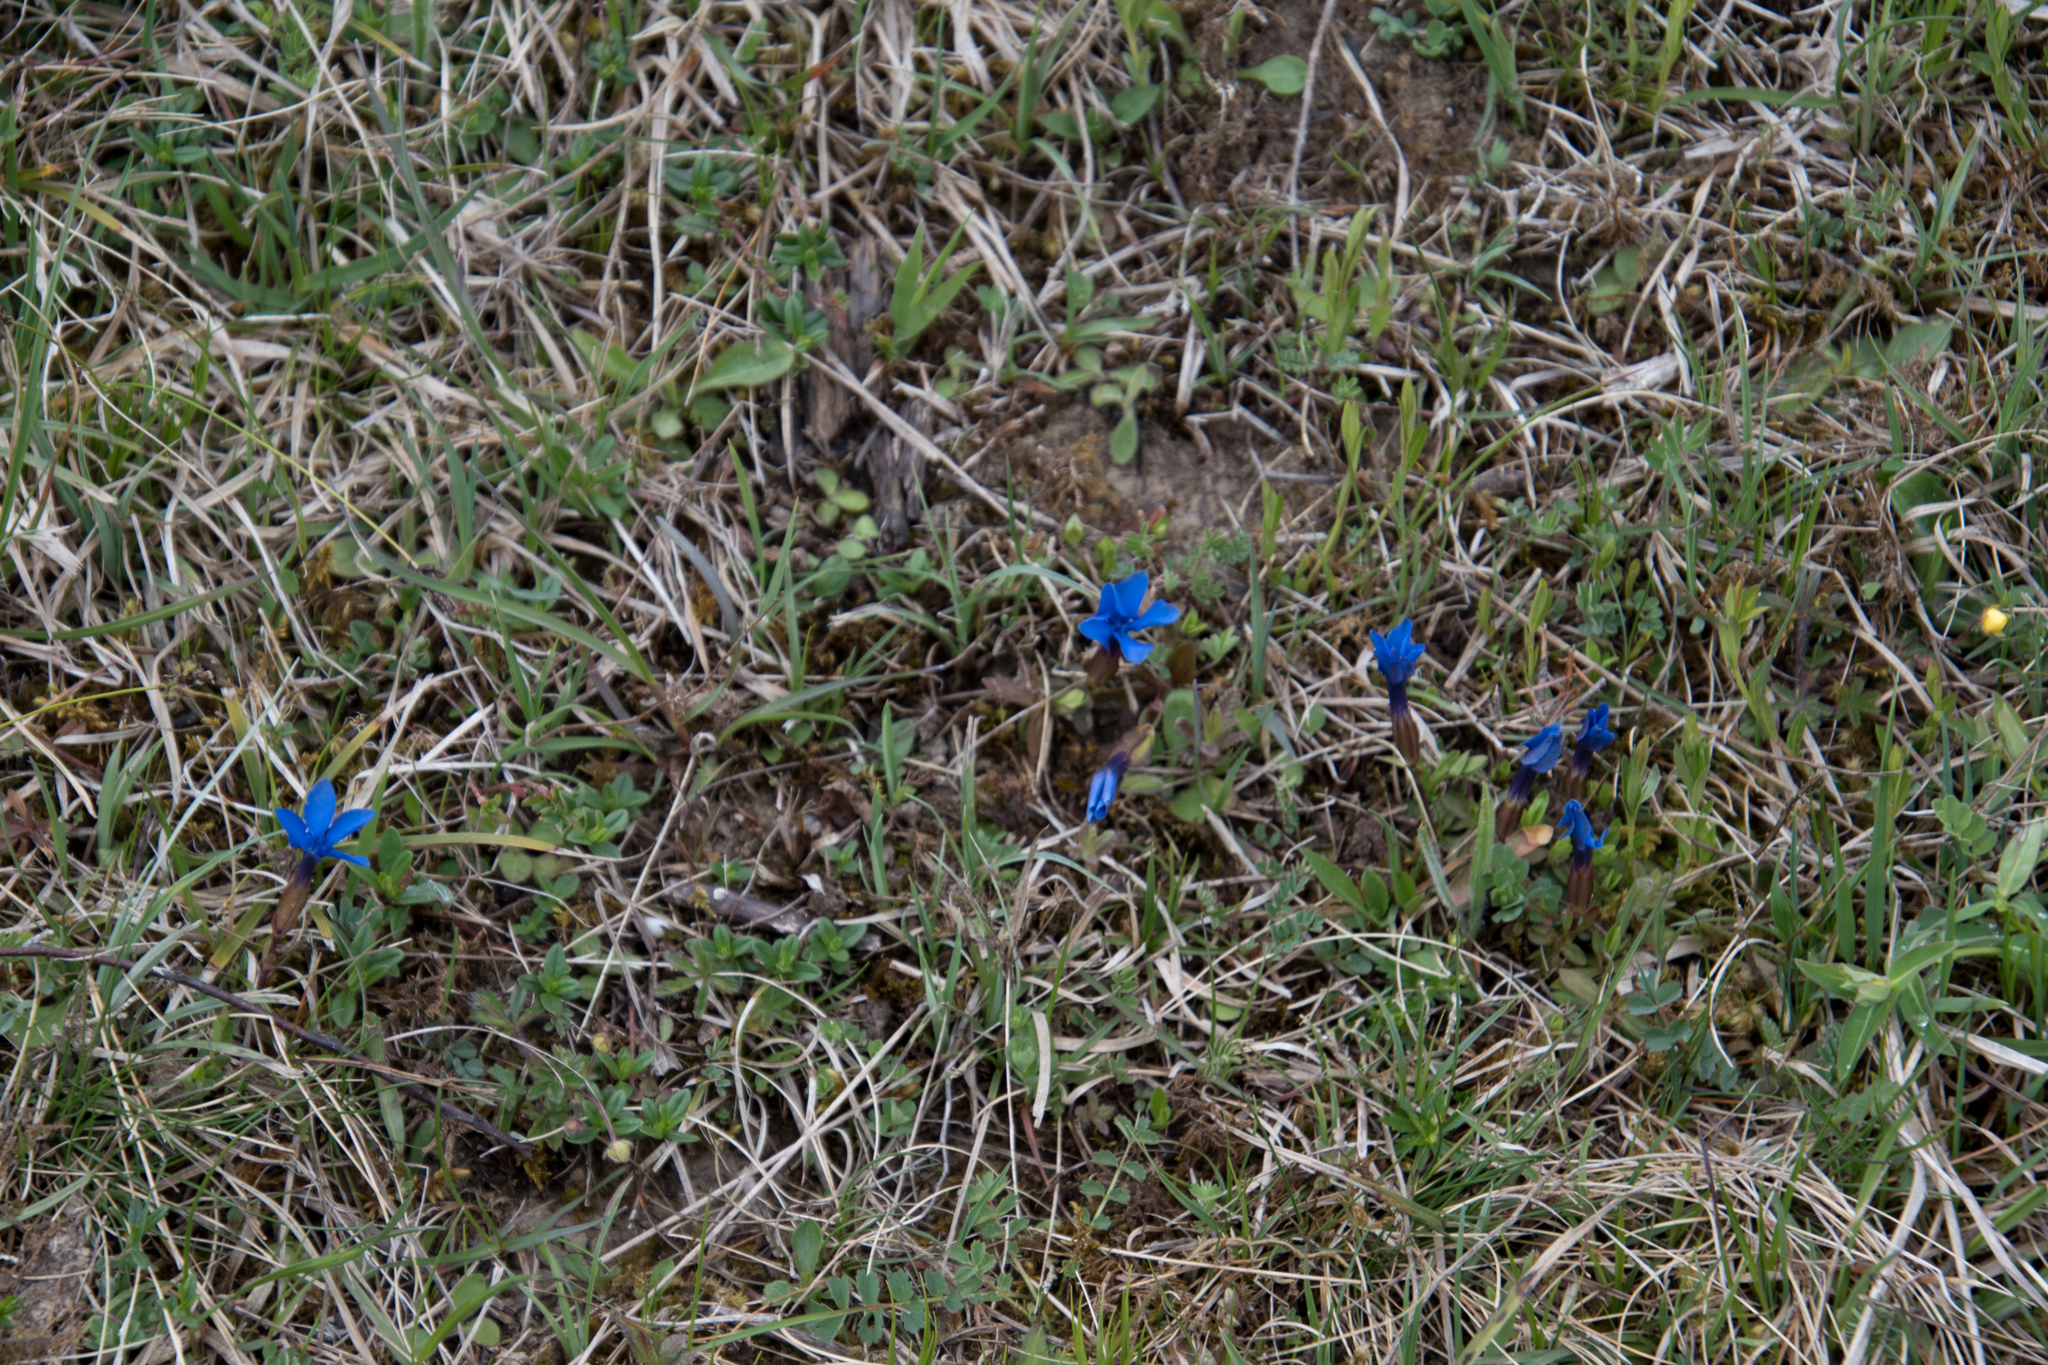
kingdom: Plantae
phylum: Tracheophyta
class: Magnoliopsida
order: Gentianales
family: Gentianaceae
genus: Gentiana
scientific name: Gentiana verna
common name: Spring gentian
